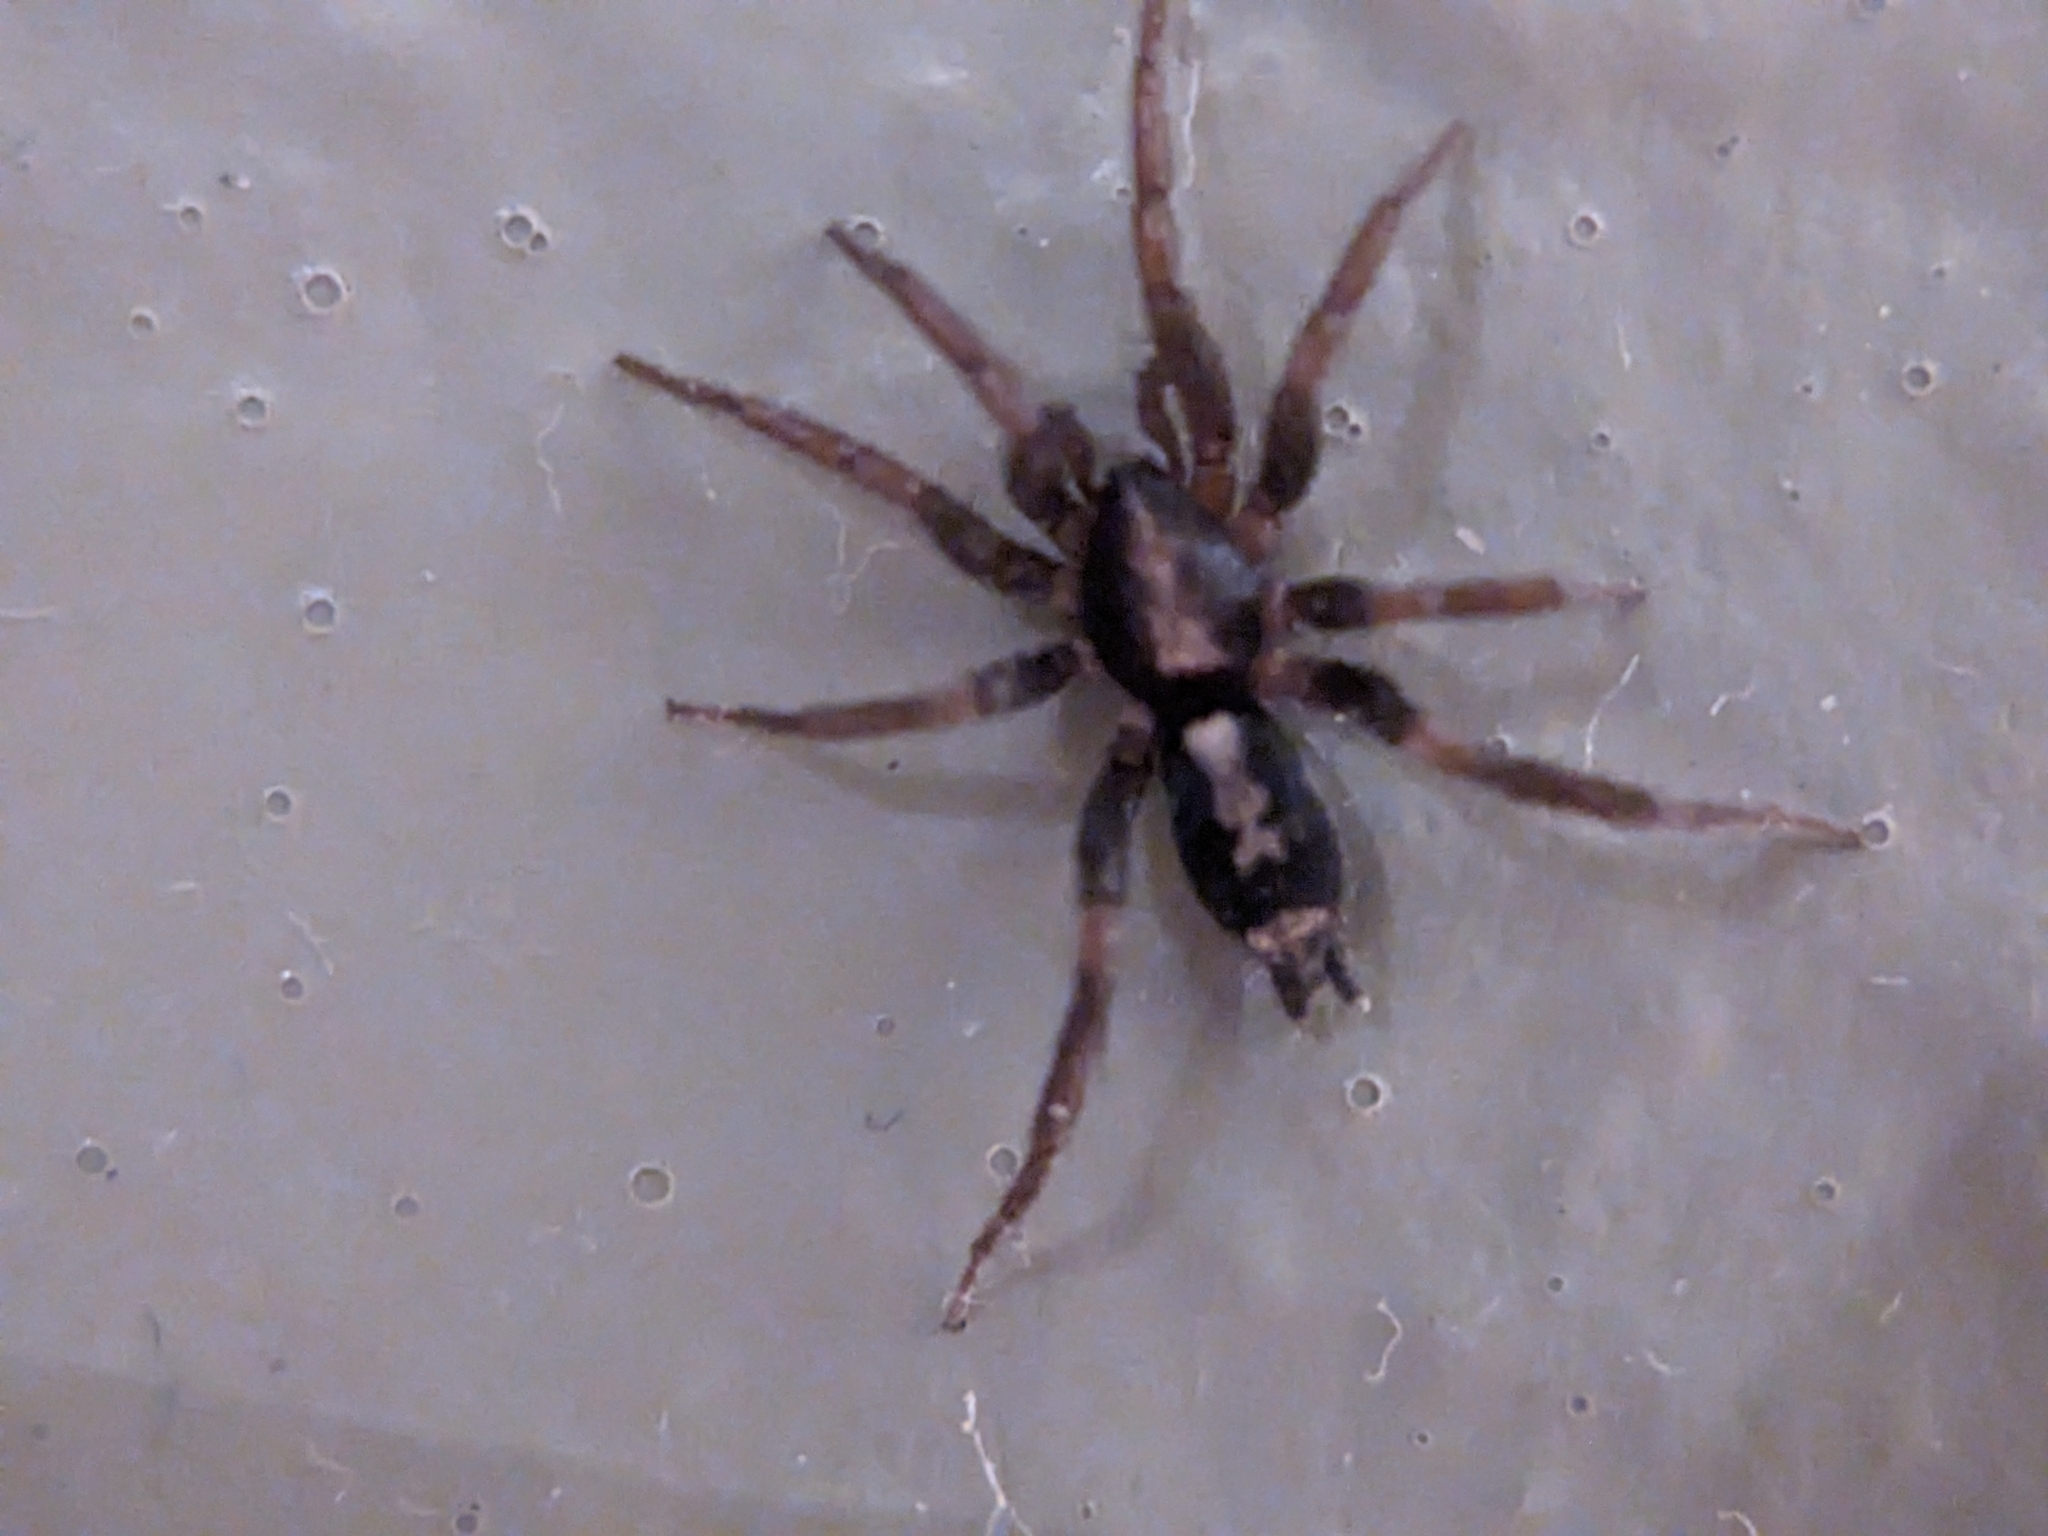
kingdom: Animalia
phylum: Arthropoda
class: Arachnida
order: Araneae
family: Gnaphosidae
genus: Herpyllus
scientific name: Herpyllus ecclesiasticus
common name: Eastern parson spider
